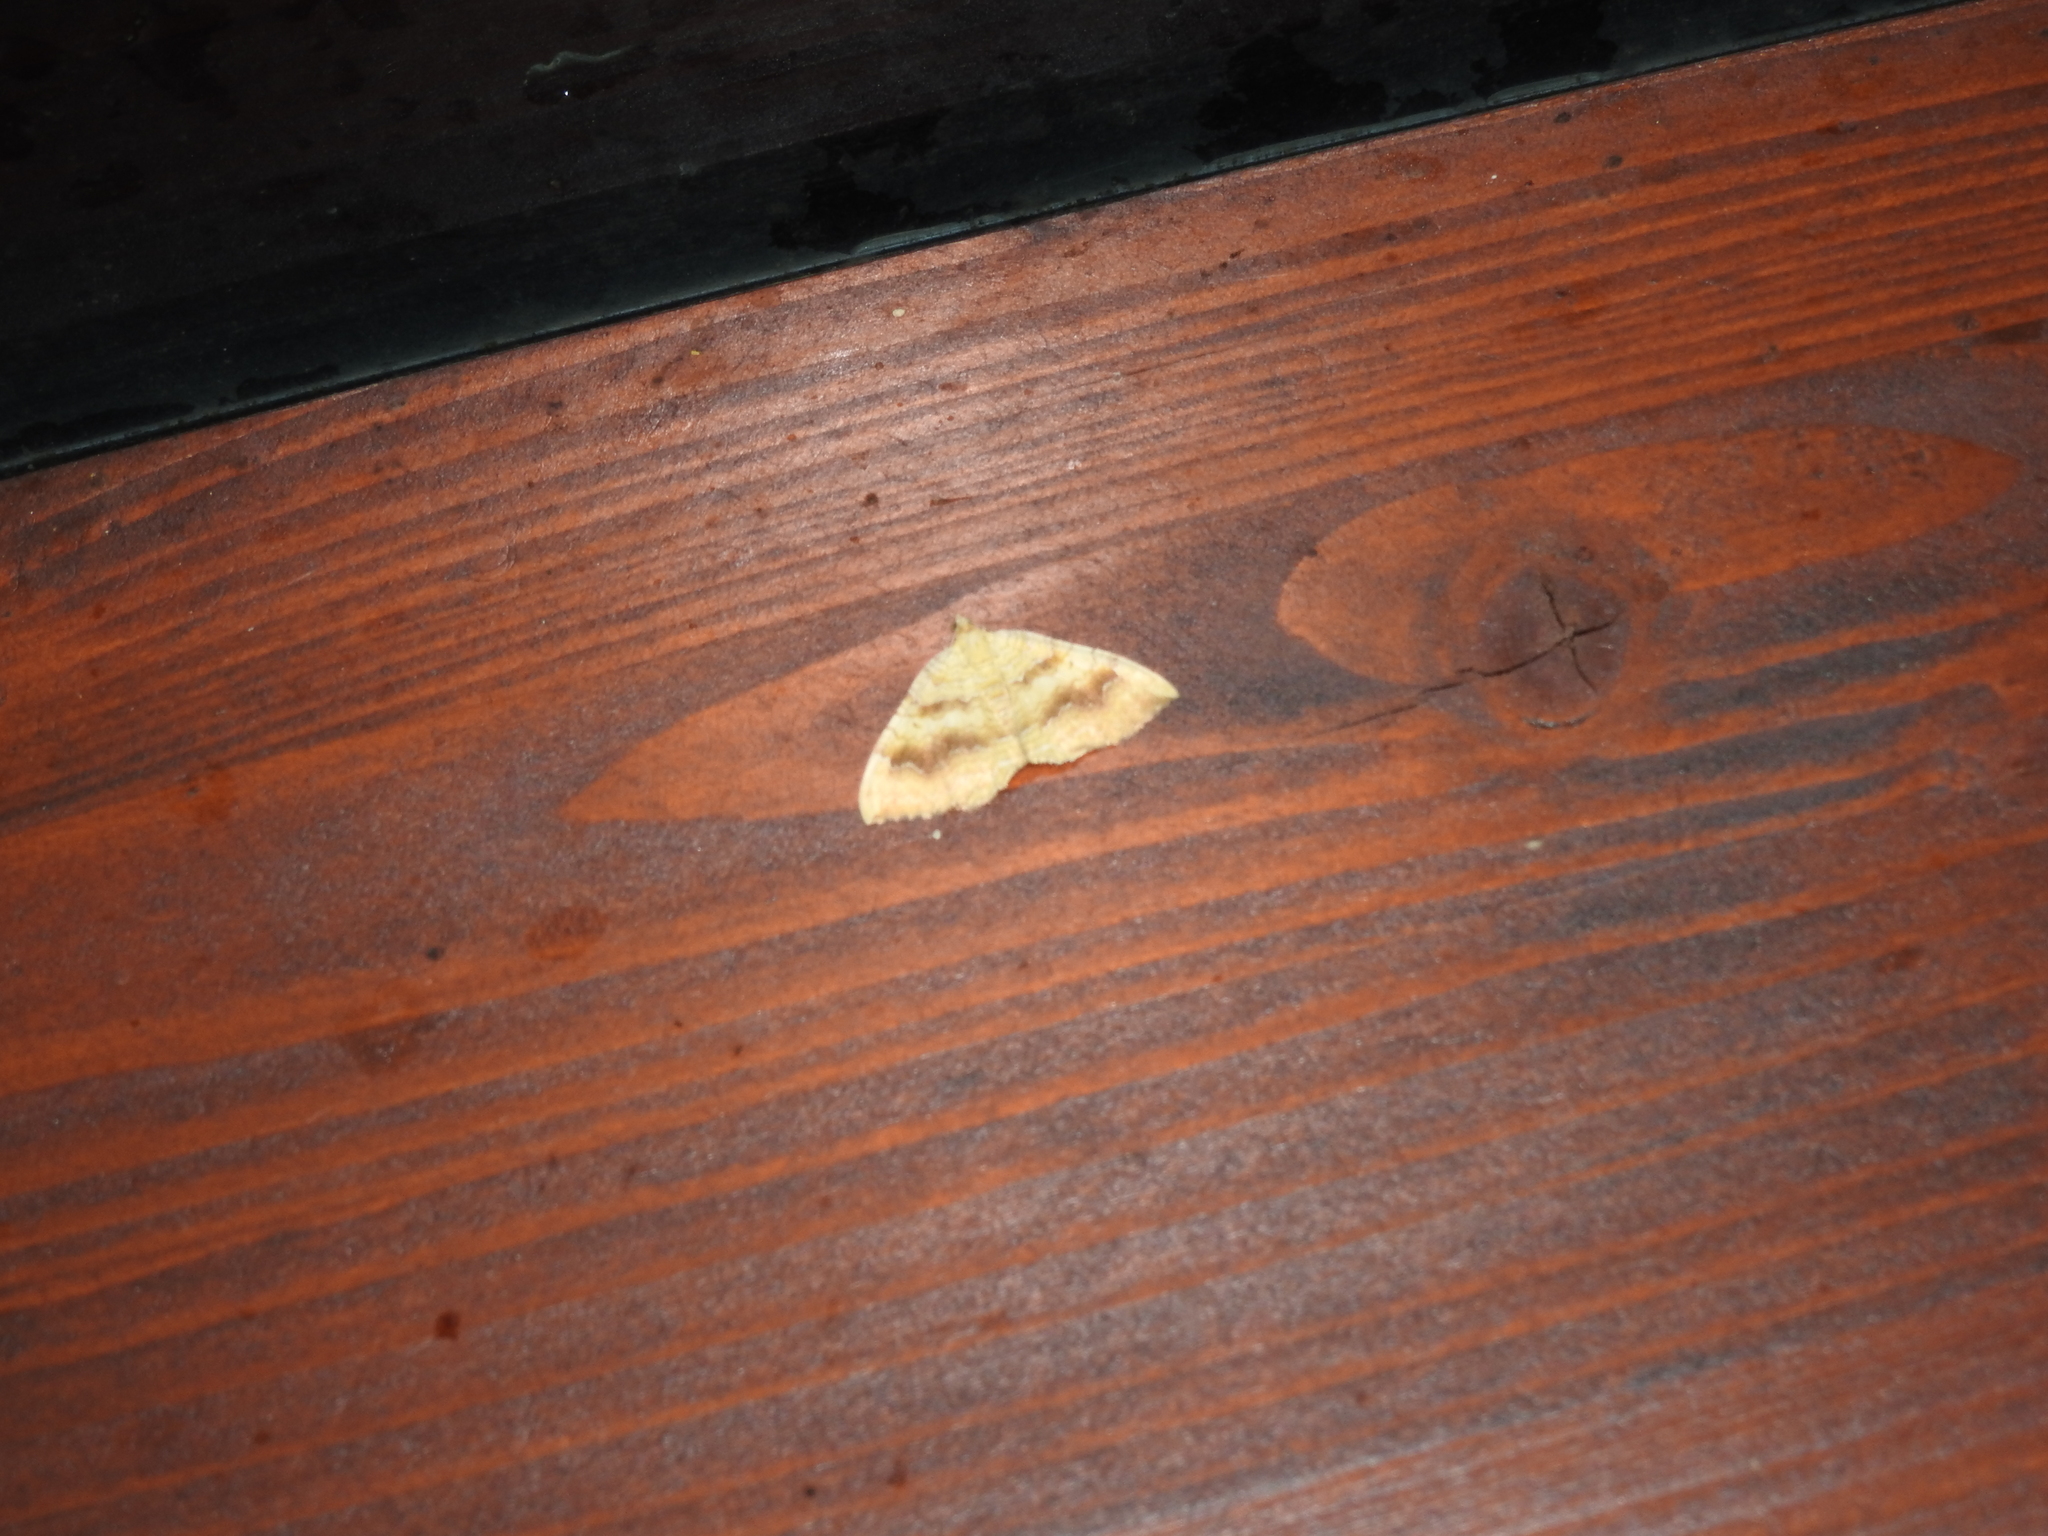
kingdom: Animalia
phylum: Arthropoda
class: Insecta
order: Lepidoptera
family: Geometridae
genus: Camptogramma
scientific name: Camptogramma bilineata
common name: Yellow shell
